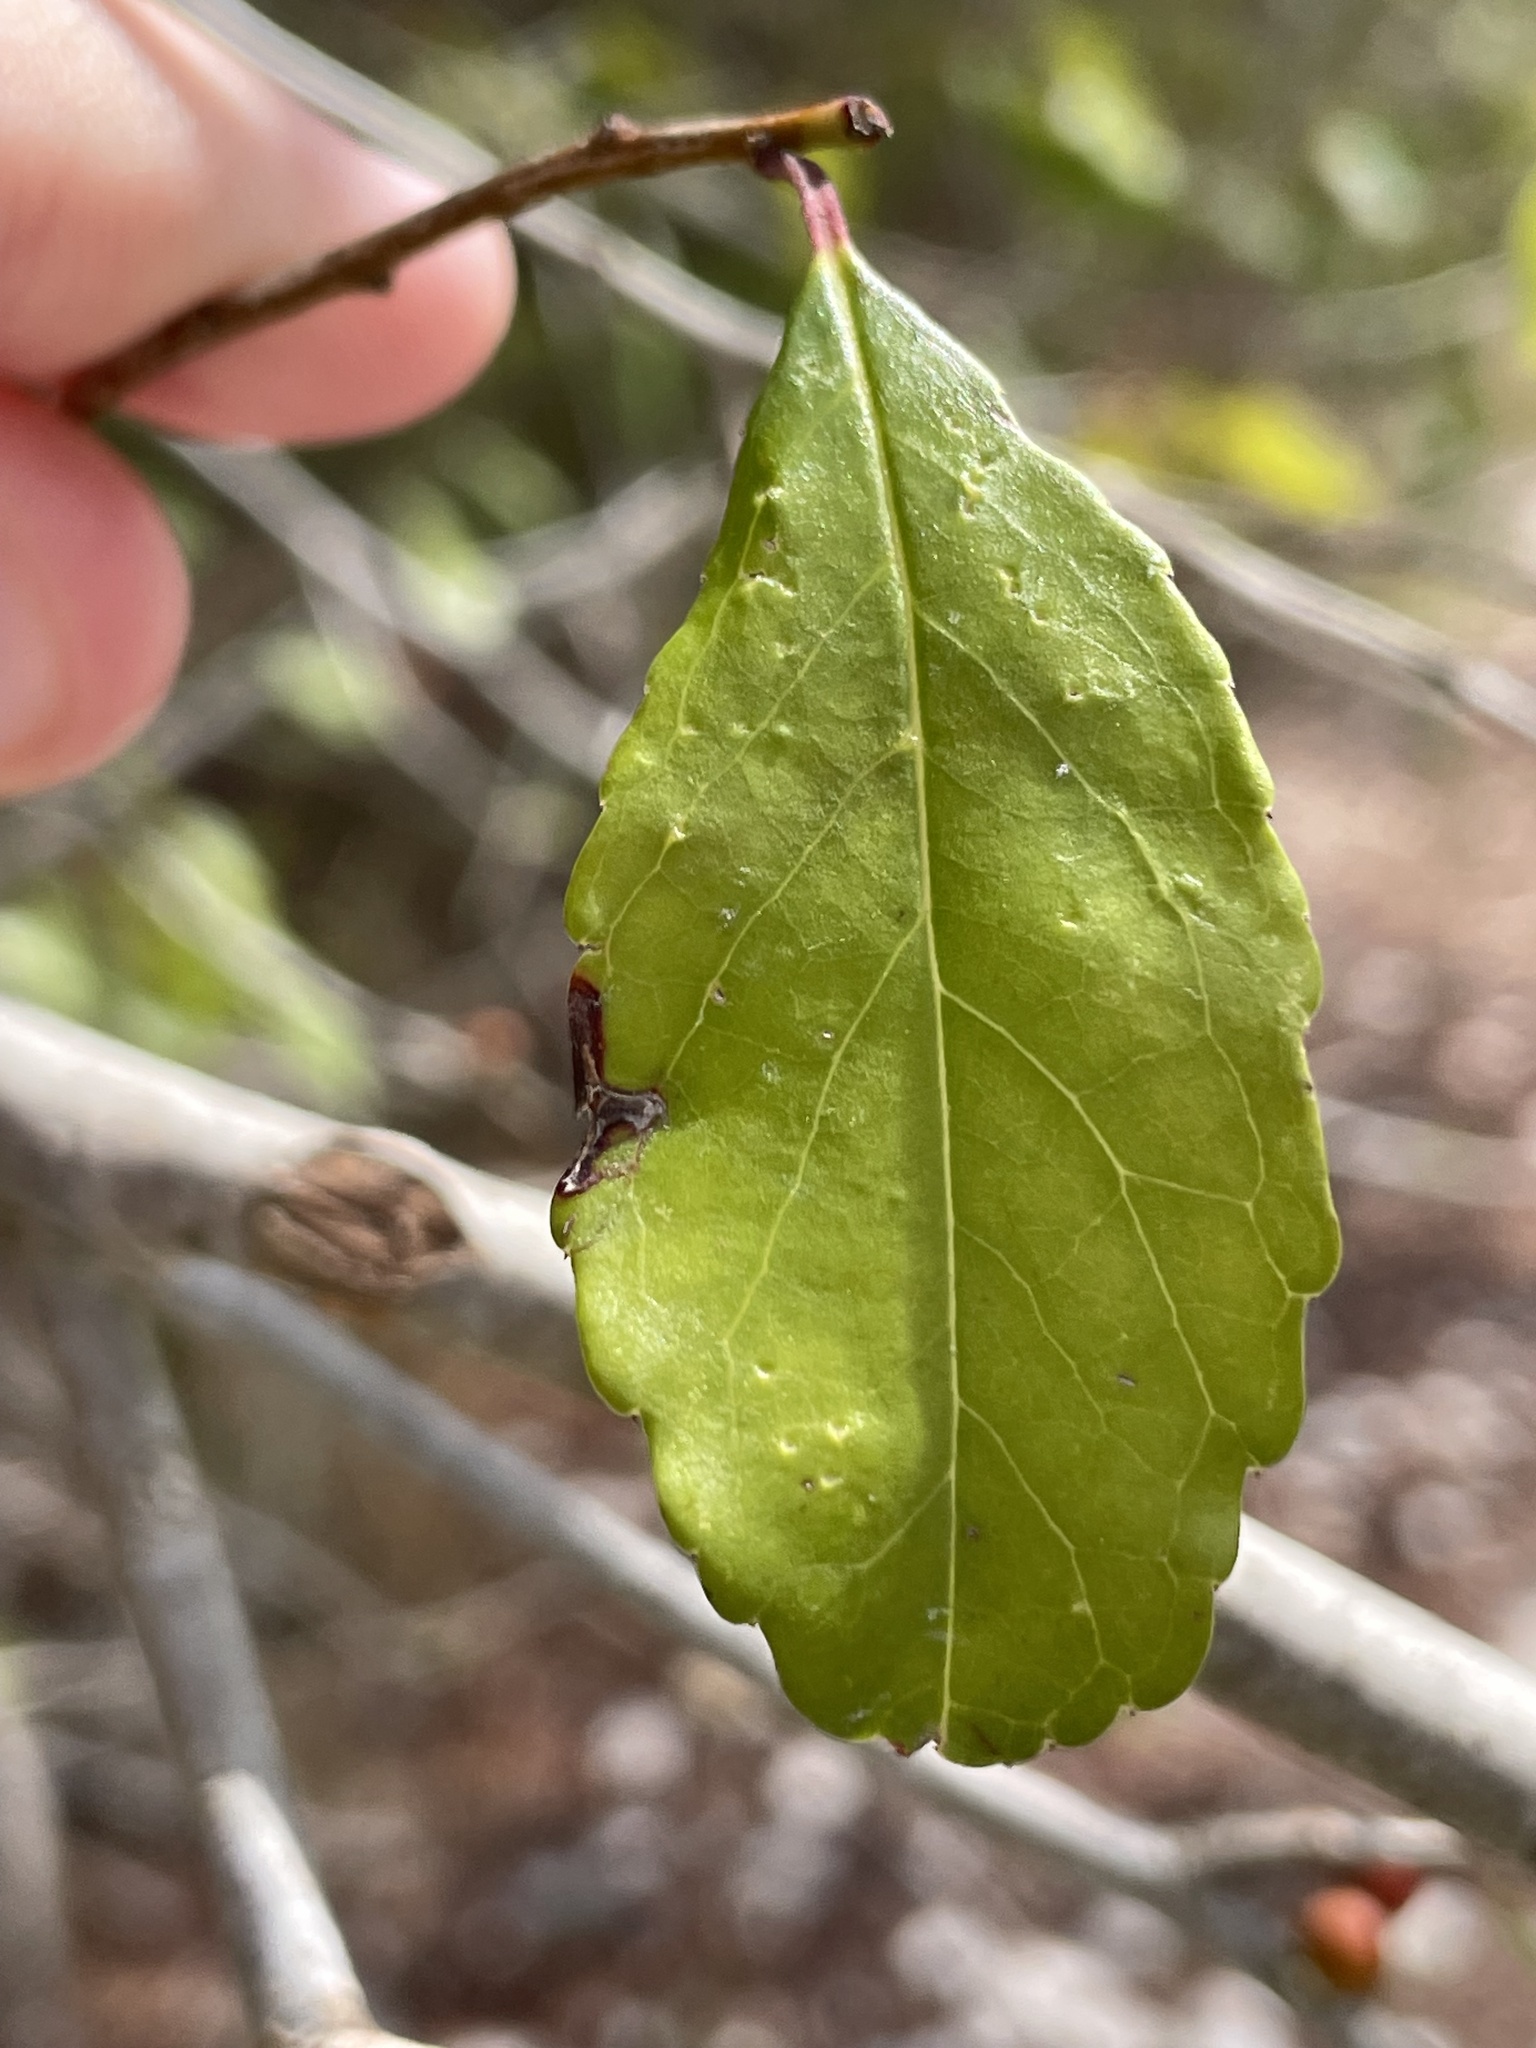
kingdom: Plantae
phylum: Tracheophyta
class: Magnoliopsida
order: Aquifoliales
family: Aquifoliaceae
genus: Ilex
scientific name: Ilex decidua
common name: Possum-haw
